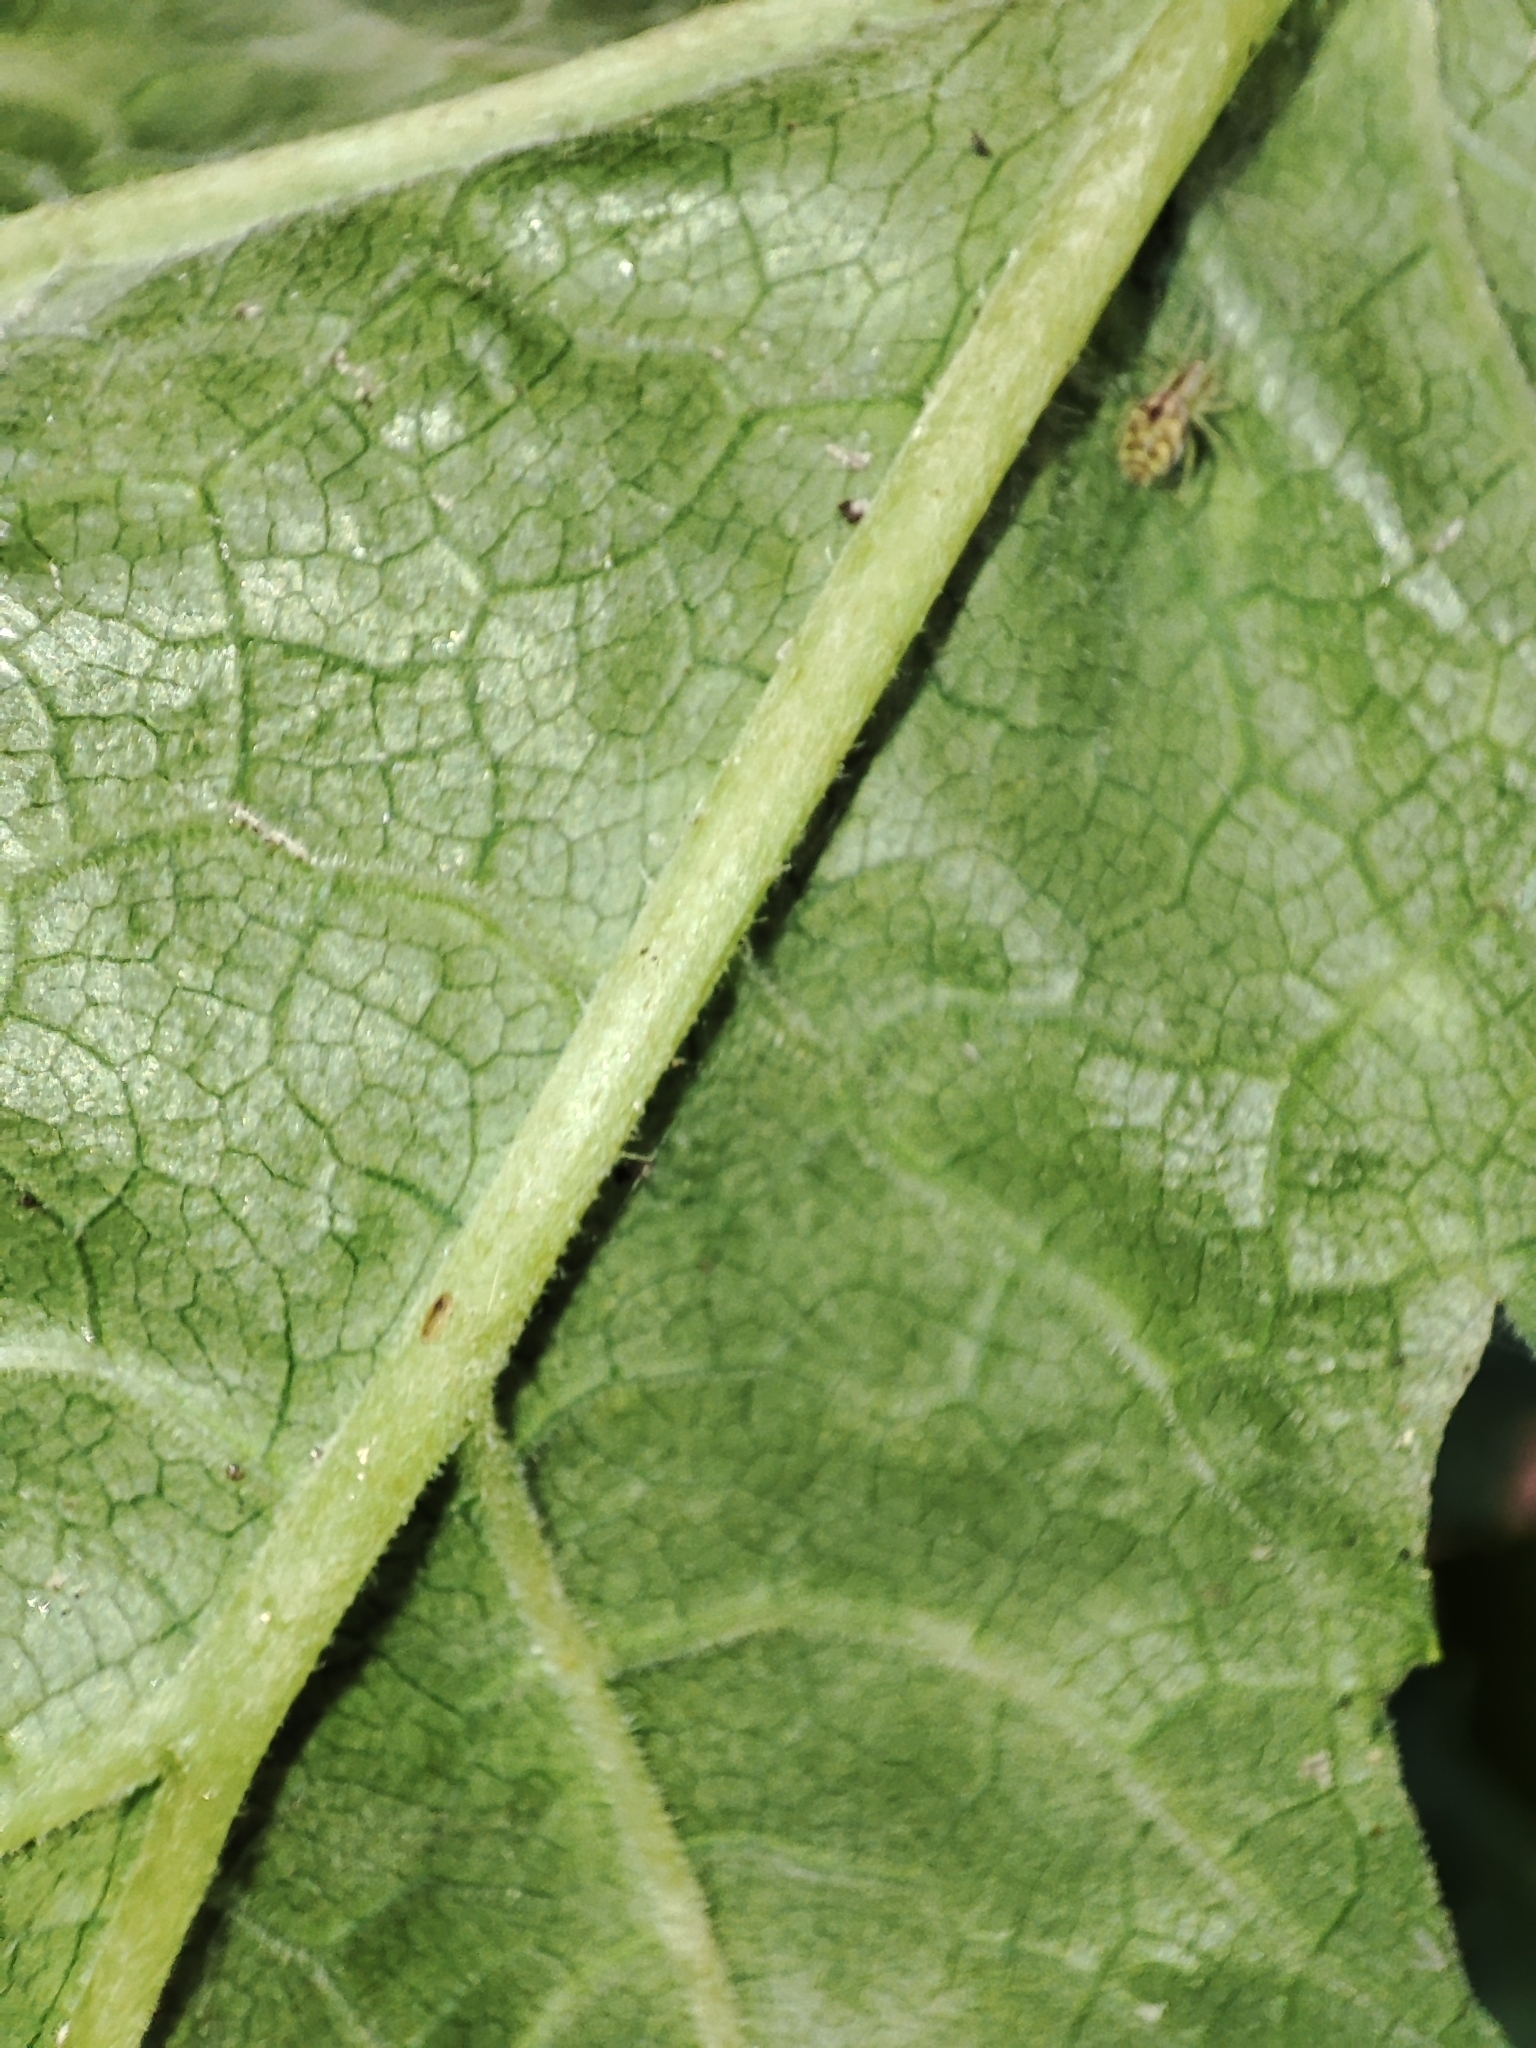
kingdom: Fungi
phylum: Ascomycota
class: Leotiomycetes
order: Helotiales
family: Erysiphaceae
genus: Erysiphe
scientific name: Erysiphe heraclei
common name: Umbellifer mildew
